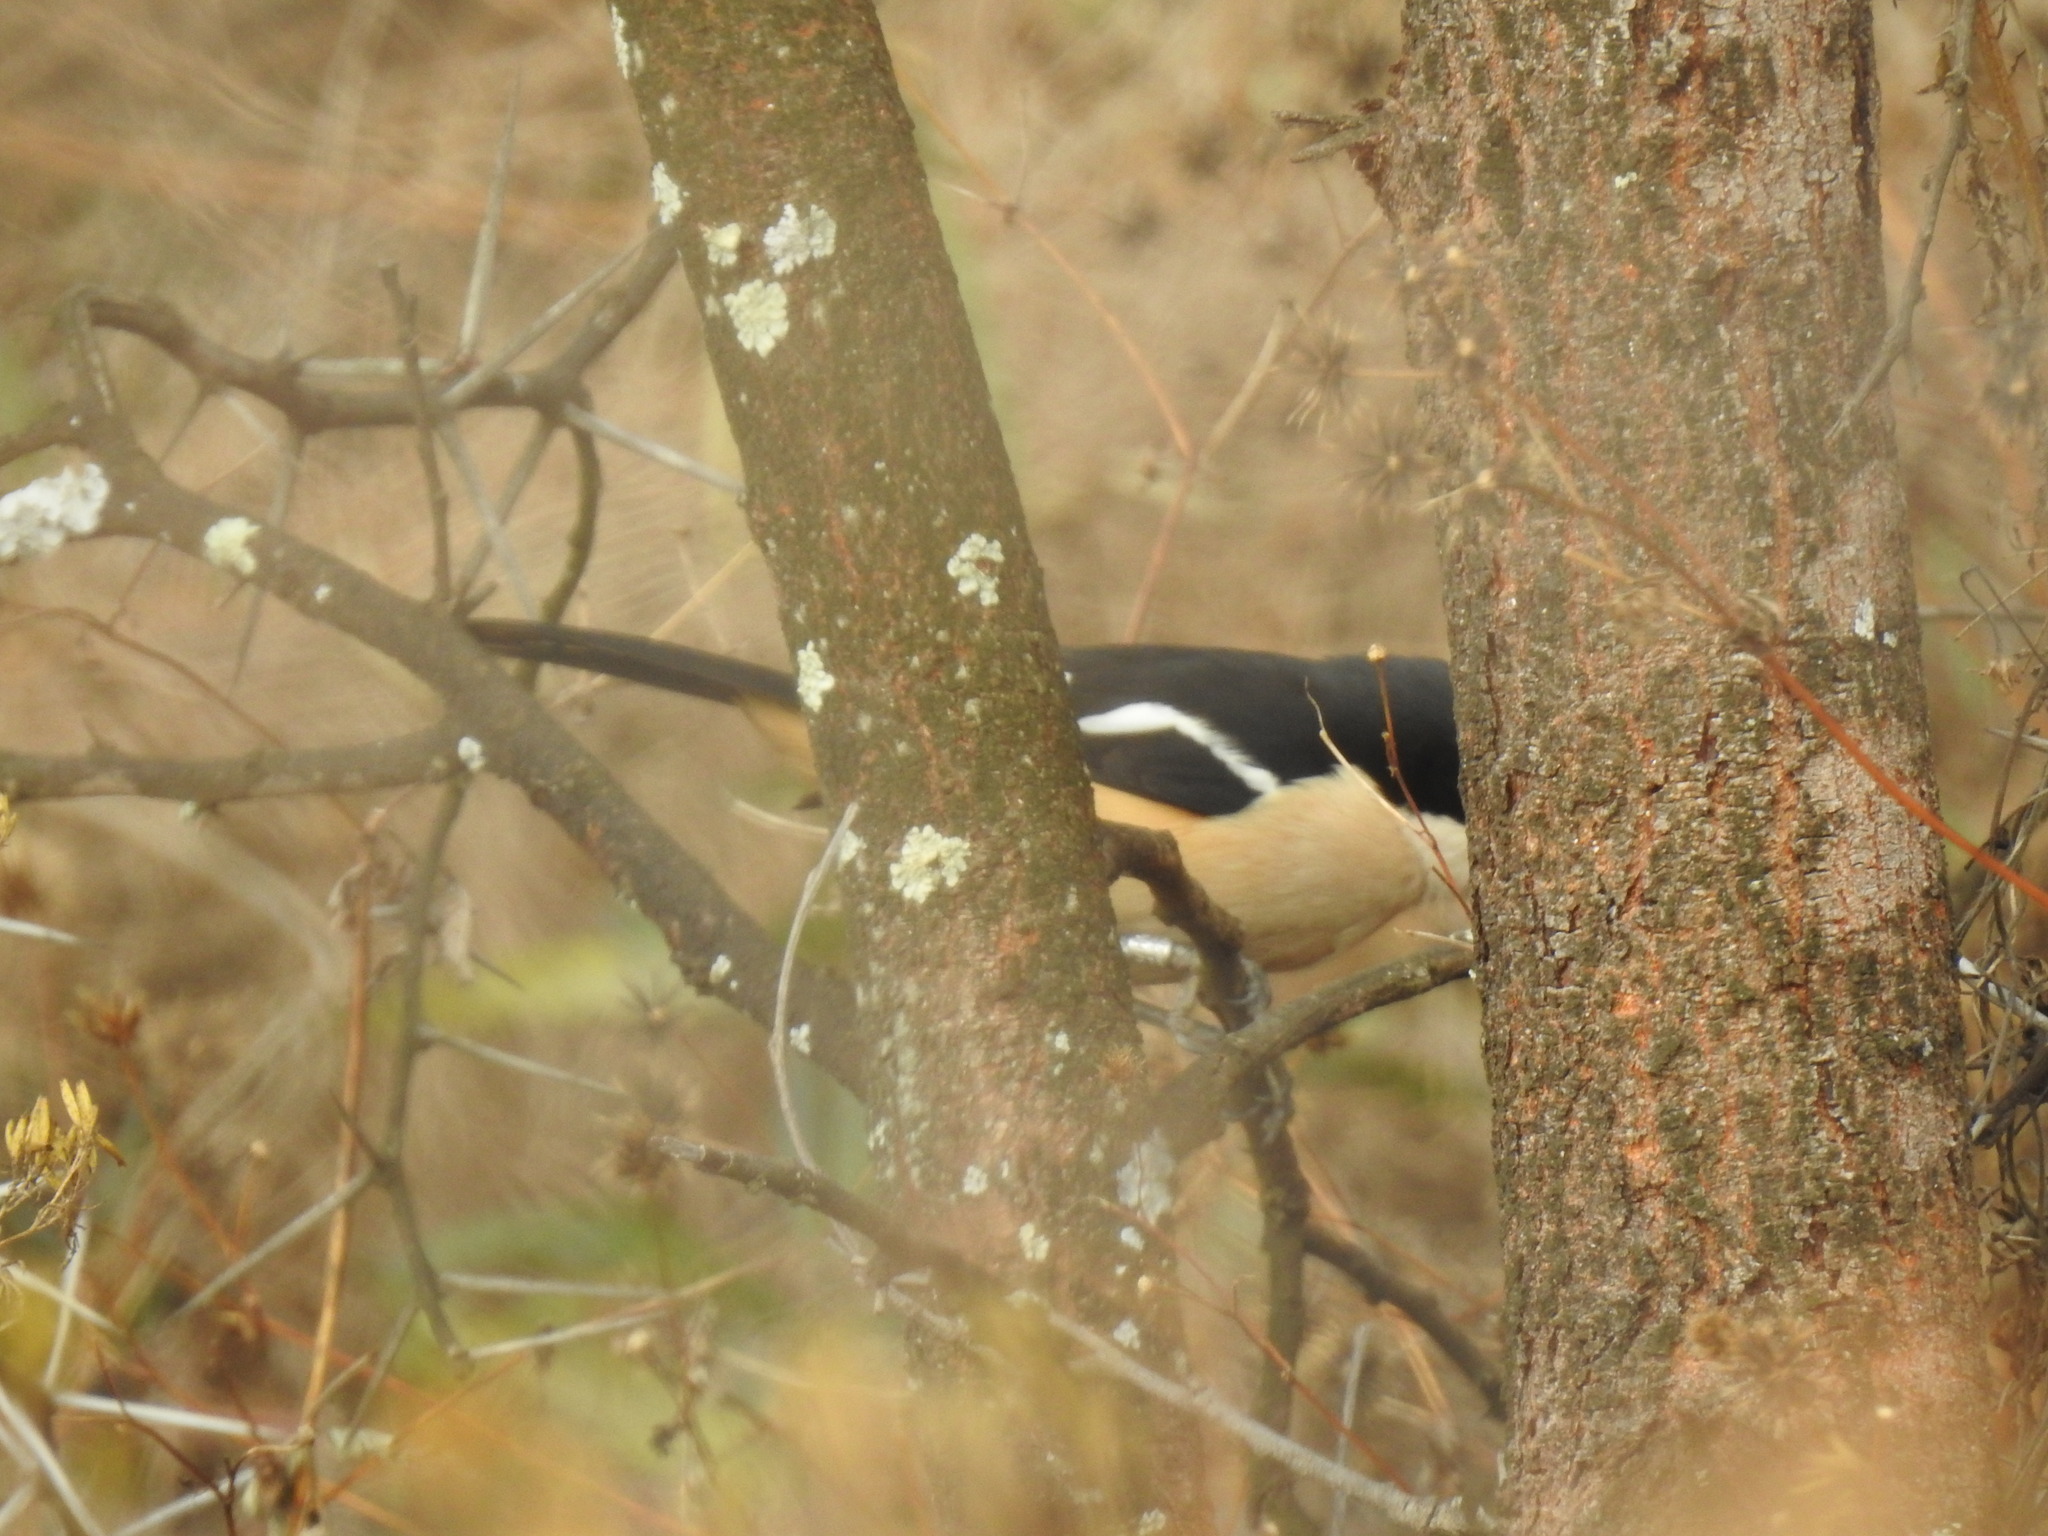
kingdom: Animalia
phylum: Chordata
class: Aves
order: Passeriformes
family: Malaconotidae
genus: Laniarius
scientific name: Laniarius ferrugineus
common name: Southern boubou
